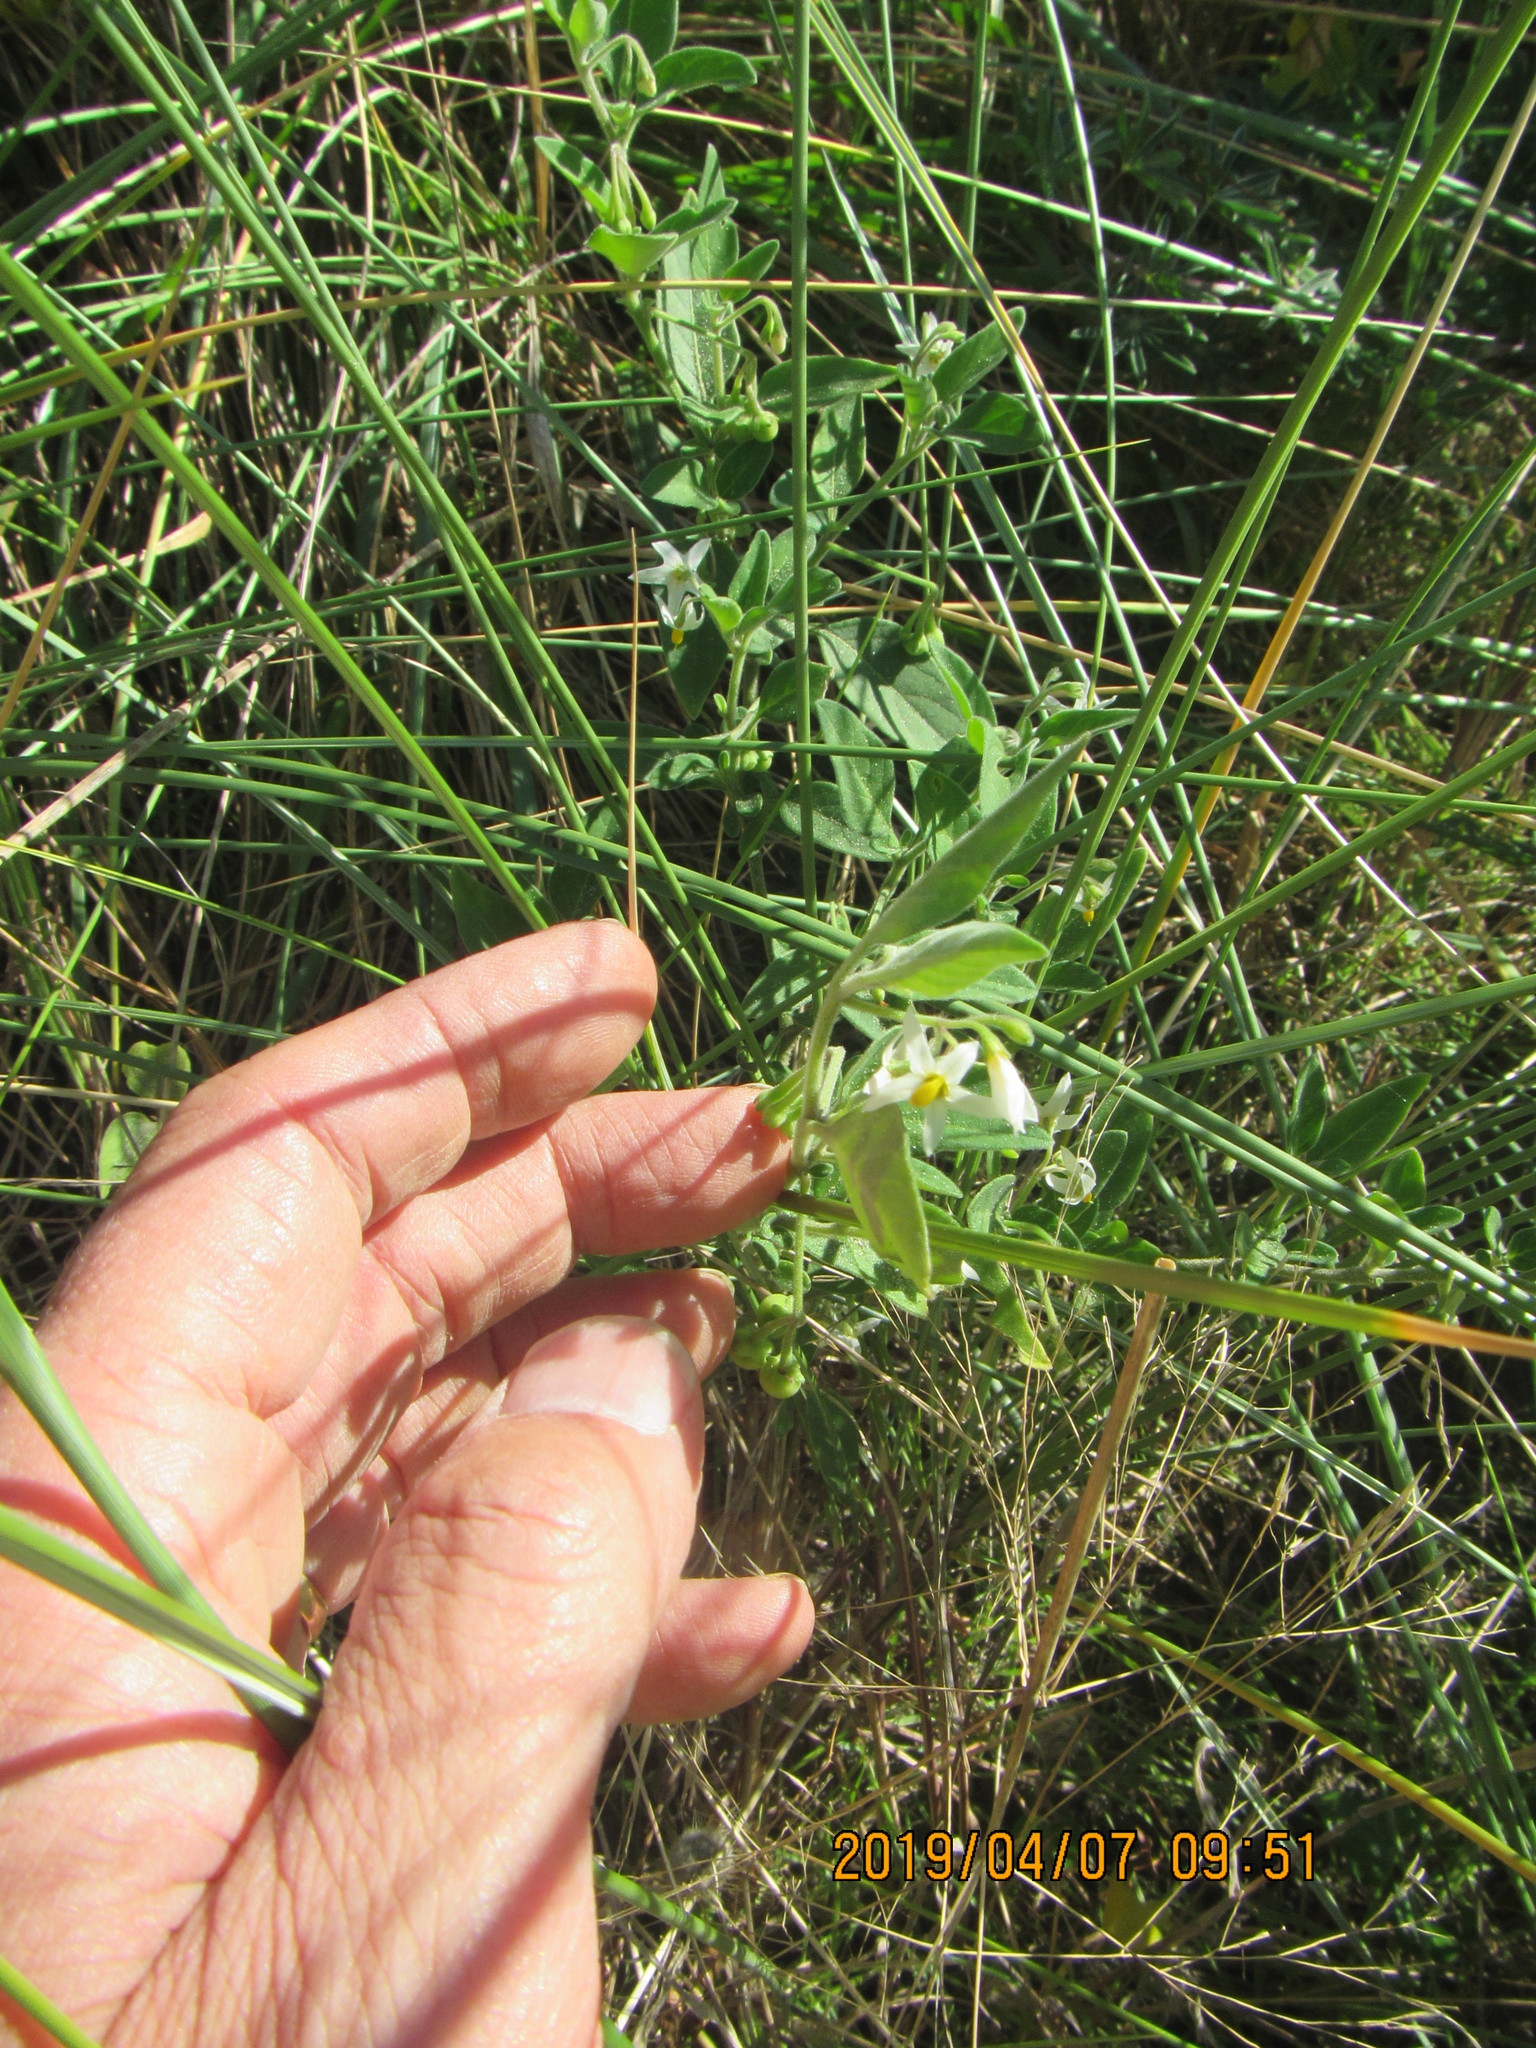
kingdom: Plantae
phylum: Tracheophyta
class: Magnoliopsida
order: Solanales
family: Solanaceae
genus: Solanum
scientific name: Solanum chenopodioides
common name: Tall nightshade
